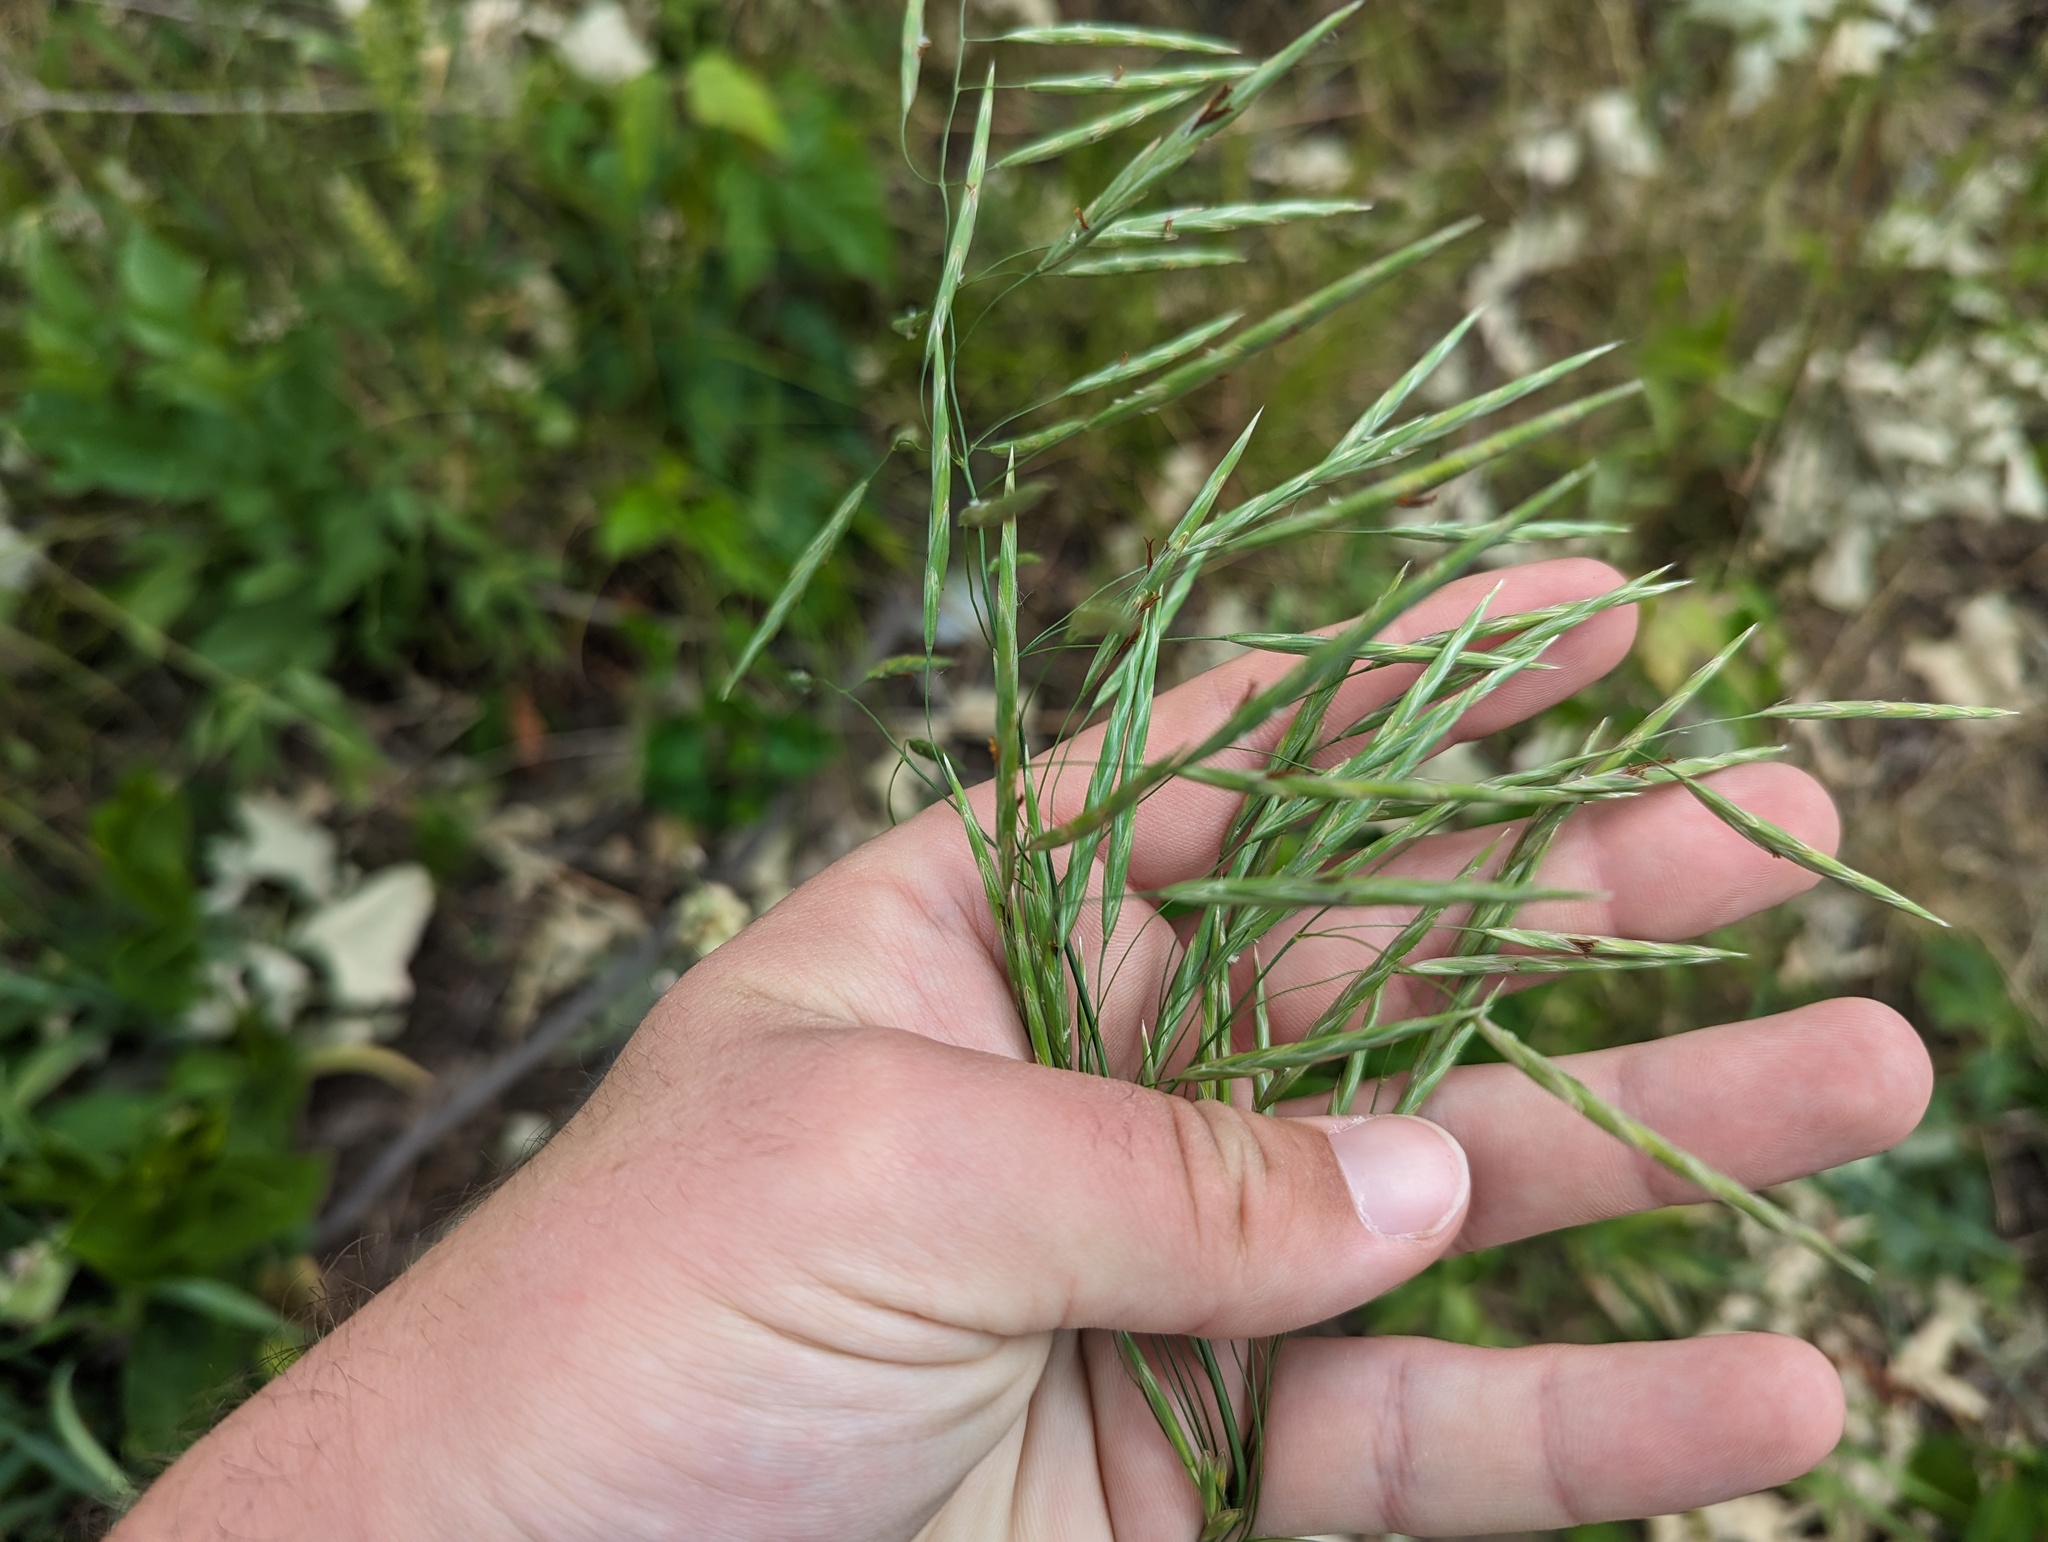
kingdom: Plantae
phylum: Tracheophyta
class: Liliopsida
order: Poales
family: Poaceae
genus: Bromus
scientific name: Bromus inermis
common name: Smooth brome
